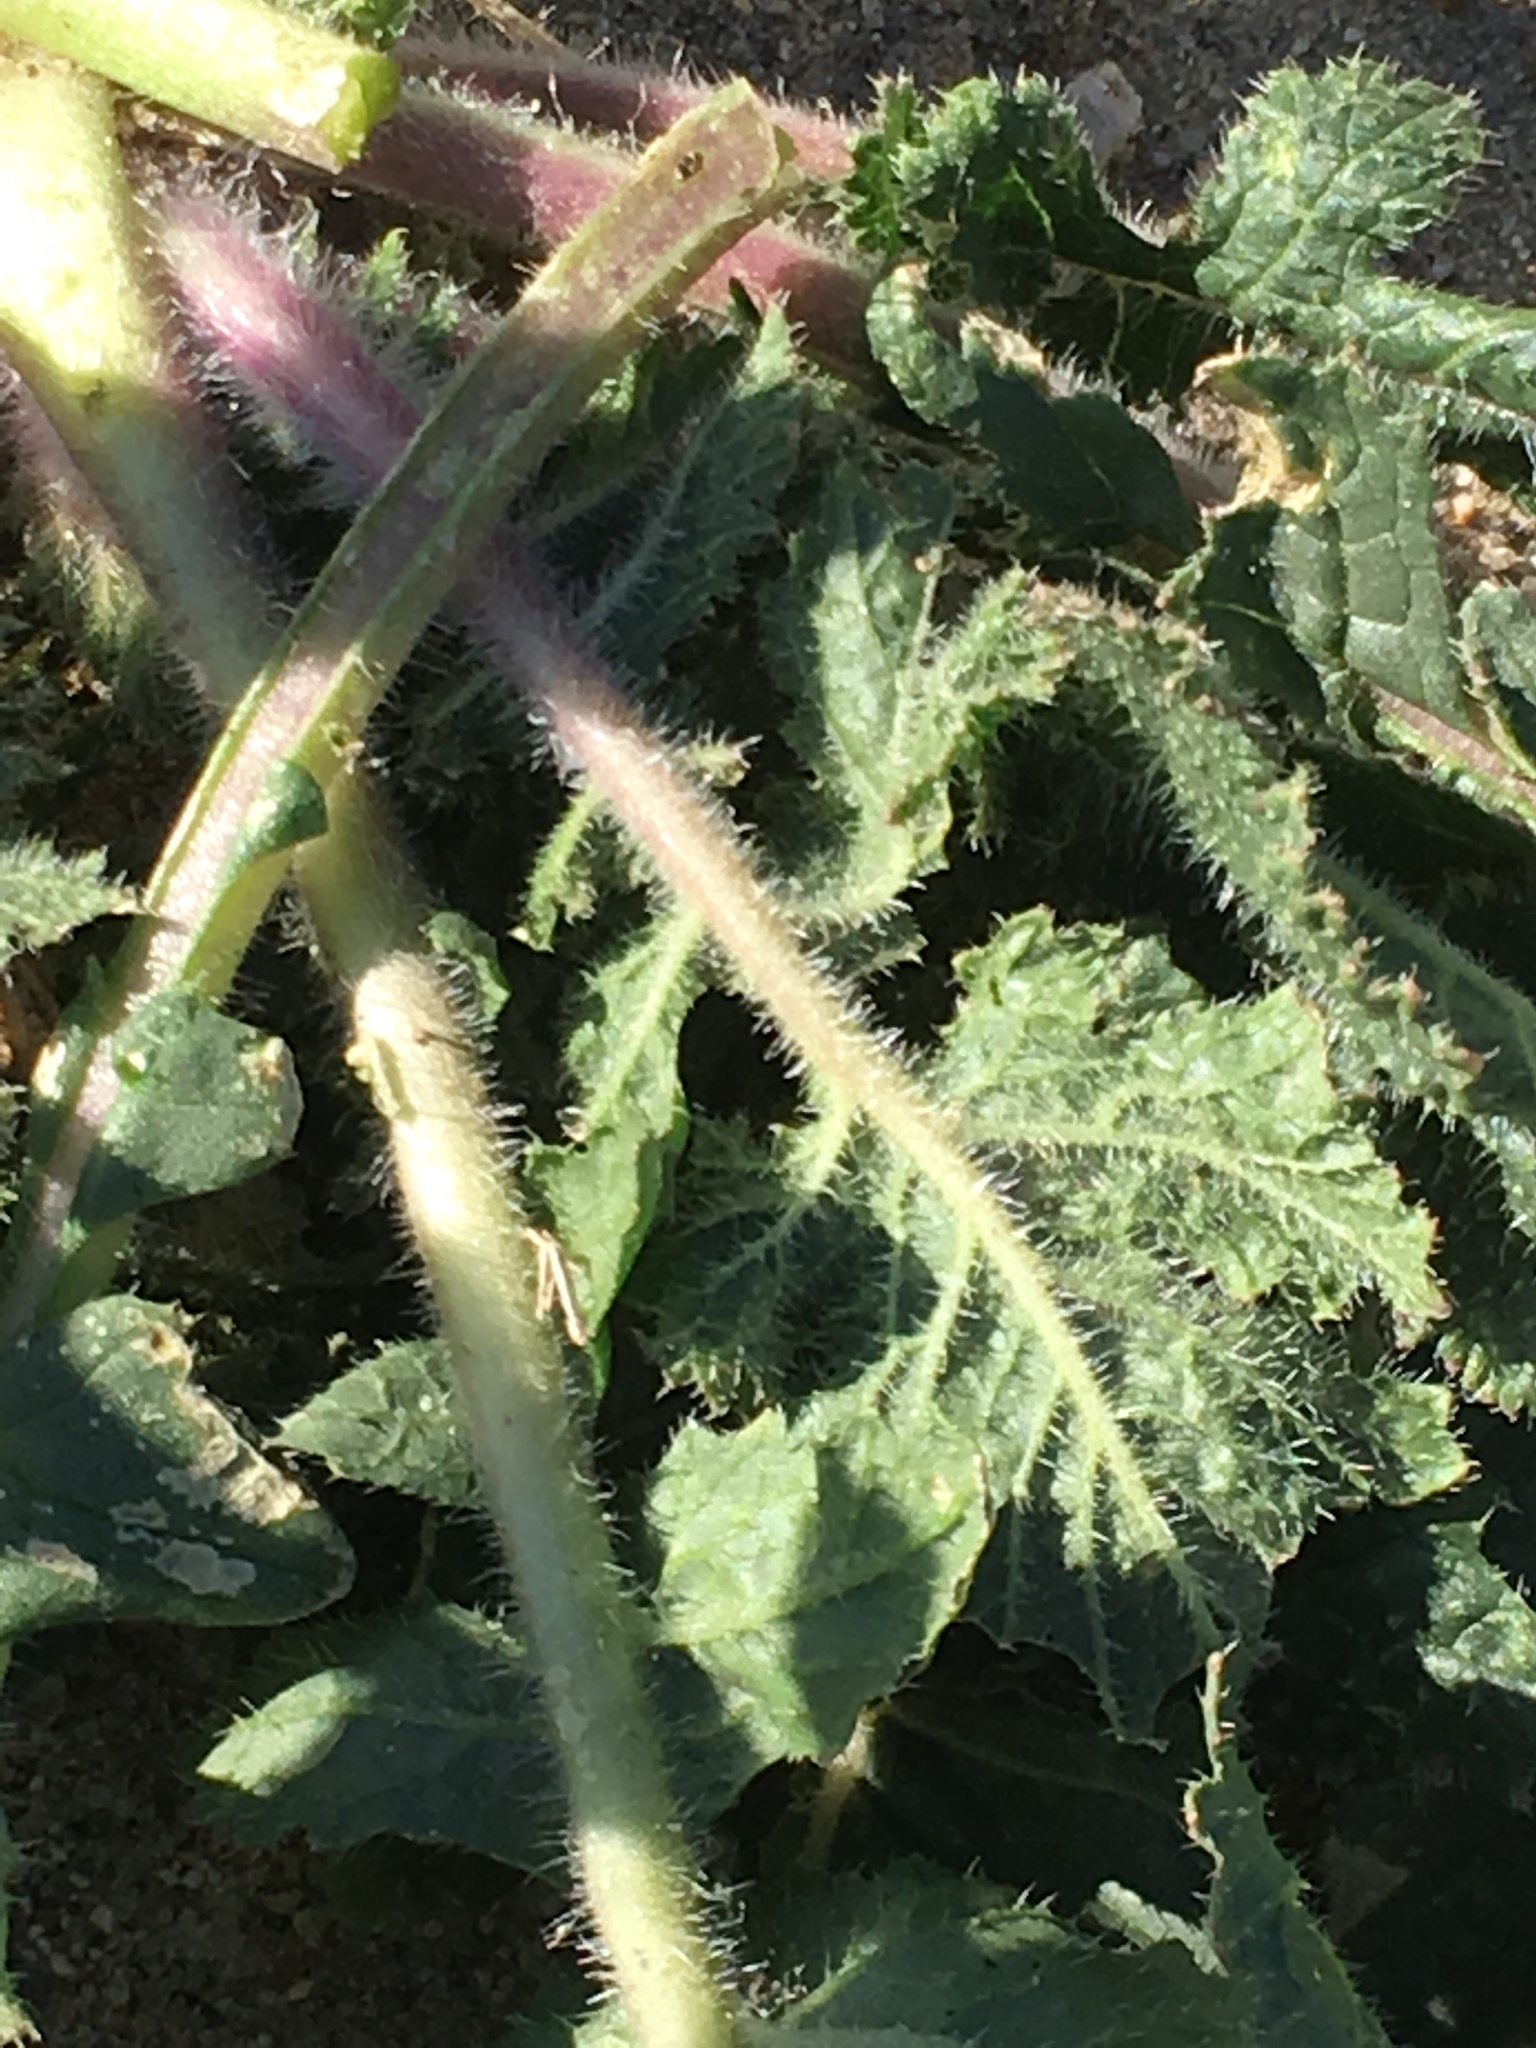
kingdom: Plantae
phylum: Tracheophyta
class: Magnoliopsida
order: Brassicales
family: Brassicaceae
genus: Brassica
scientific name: Brassica tournefortii
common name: Pale cabbage
